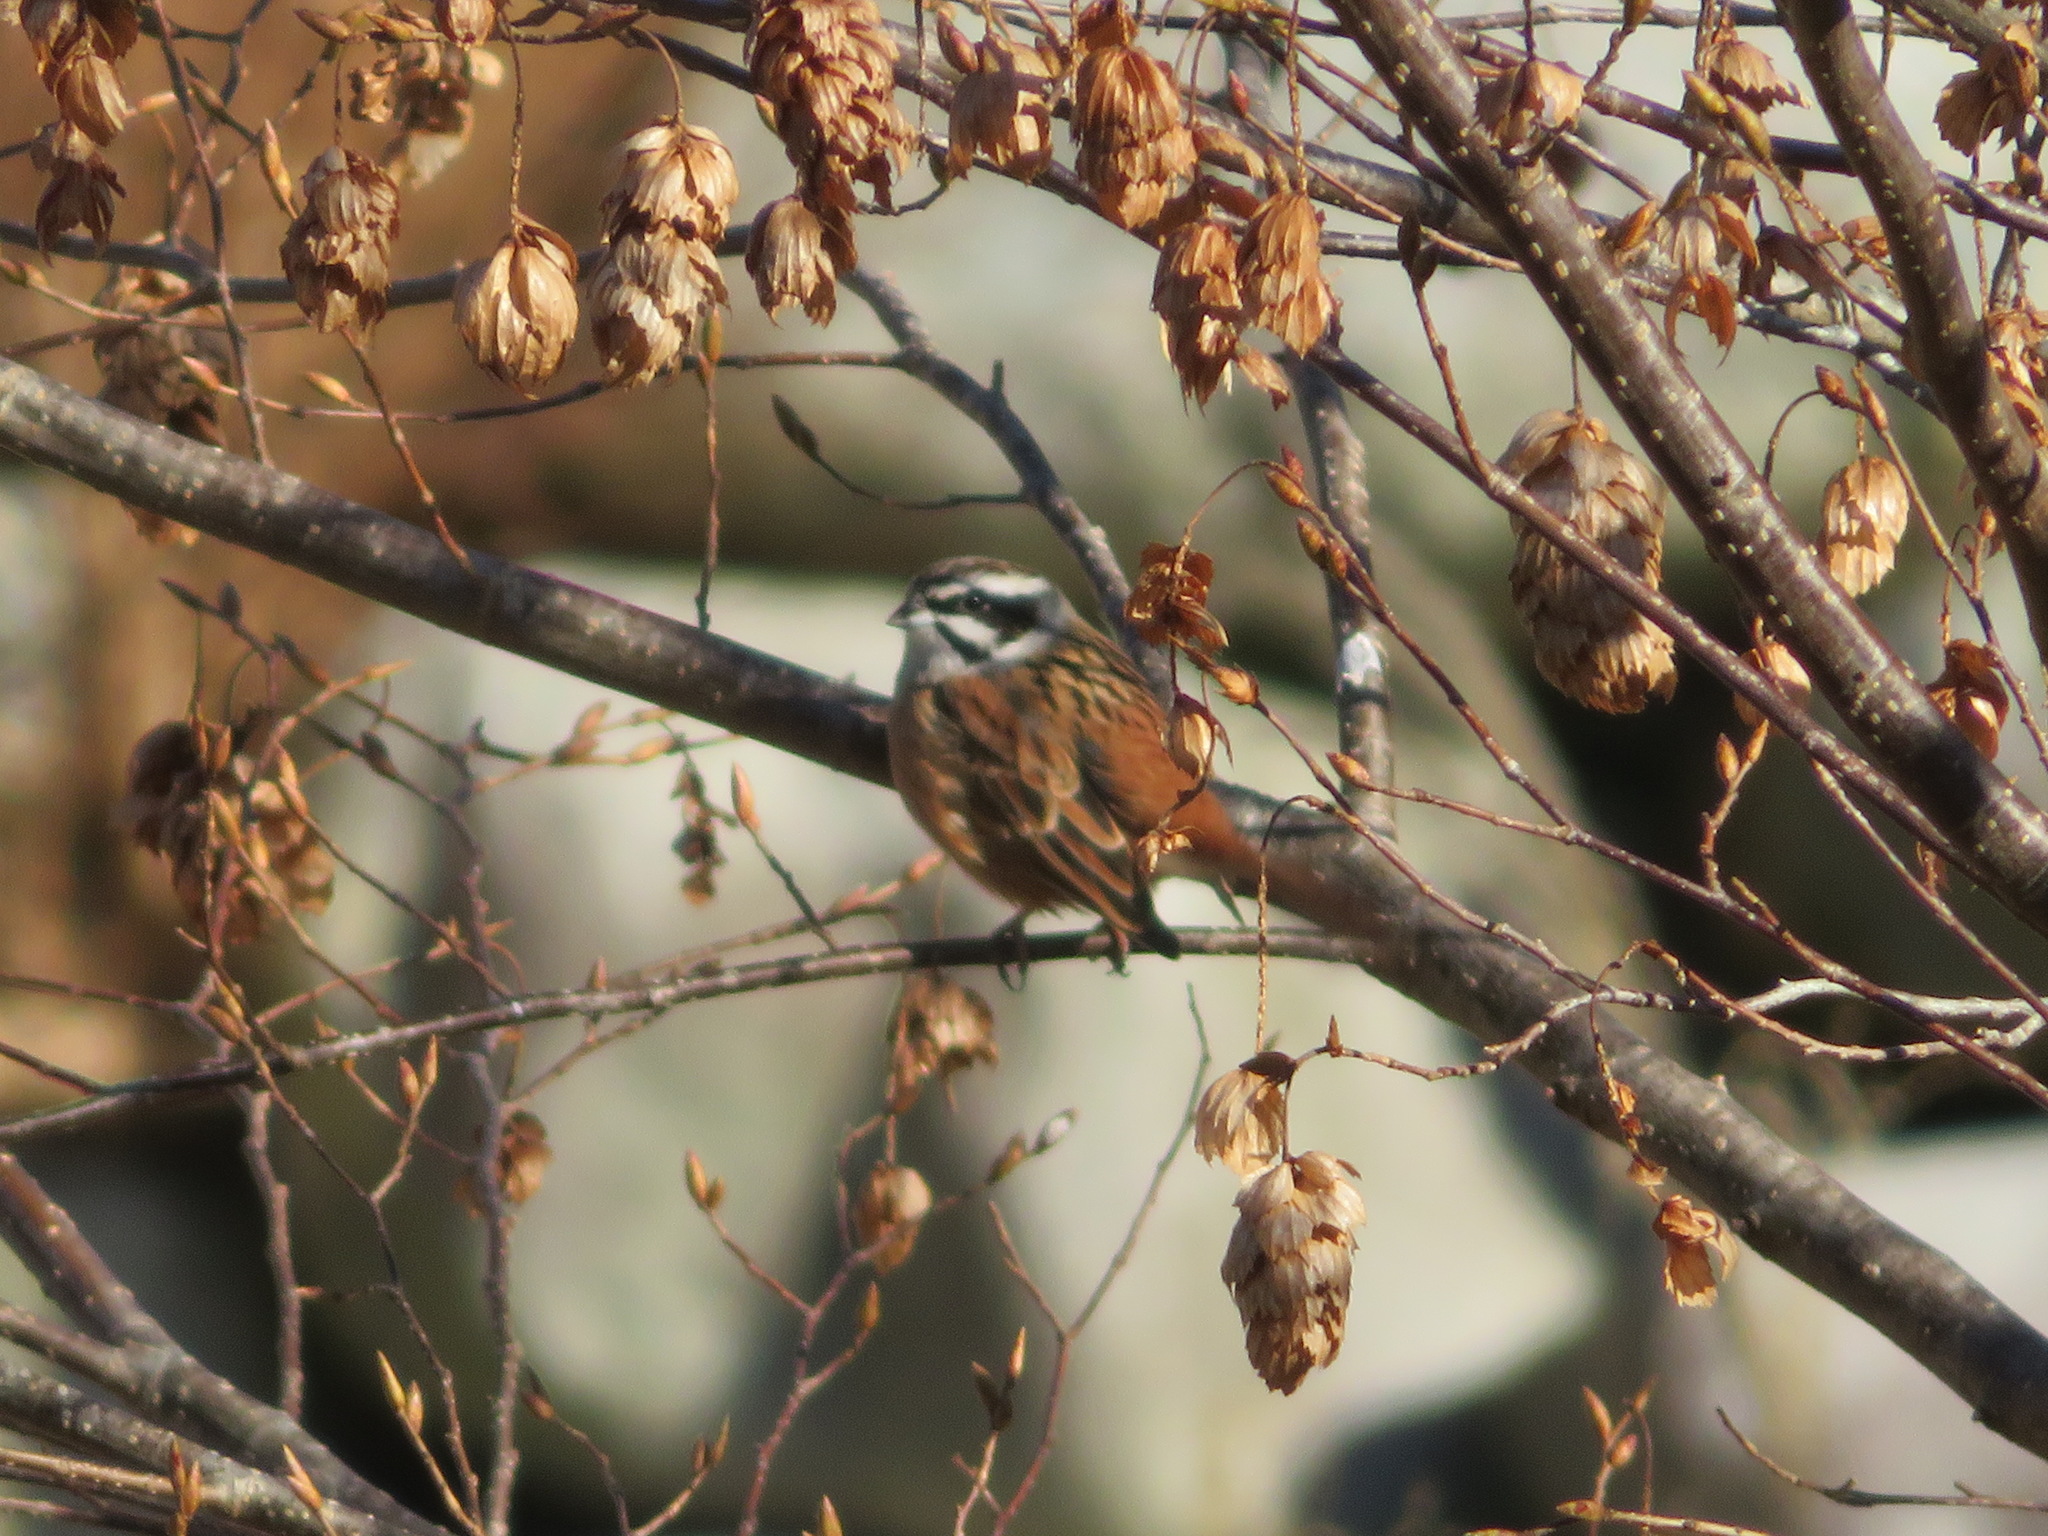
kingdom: Animalia
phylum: Chordata
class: Aves
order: Passeriformes
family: Emberizidae
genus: Emberiza
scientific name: Emberiza cioides
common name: Meadow bunting
